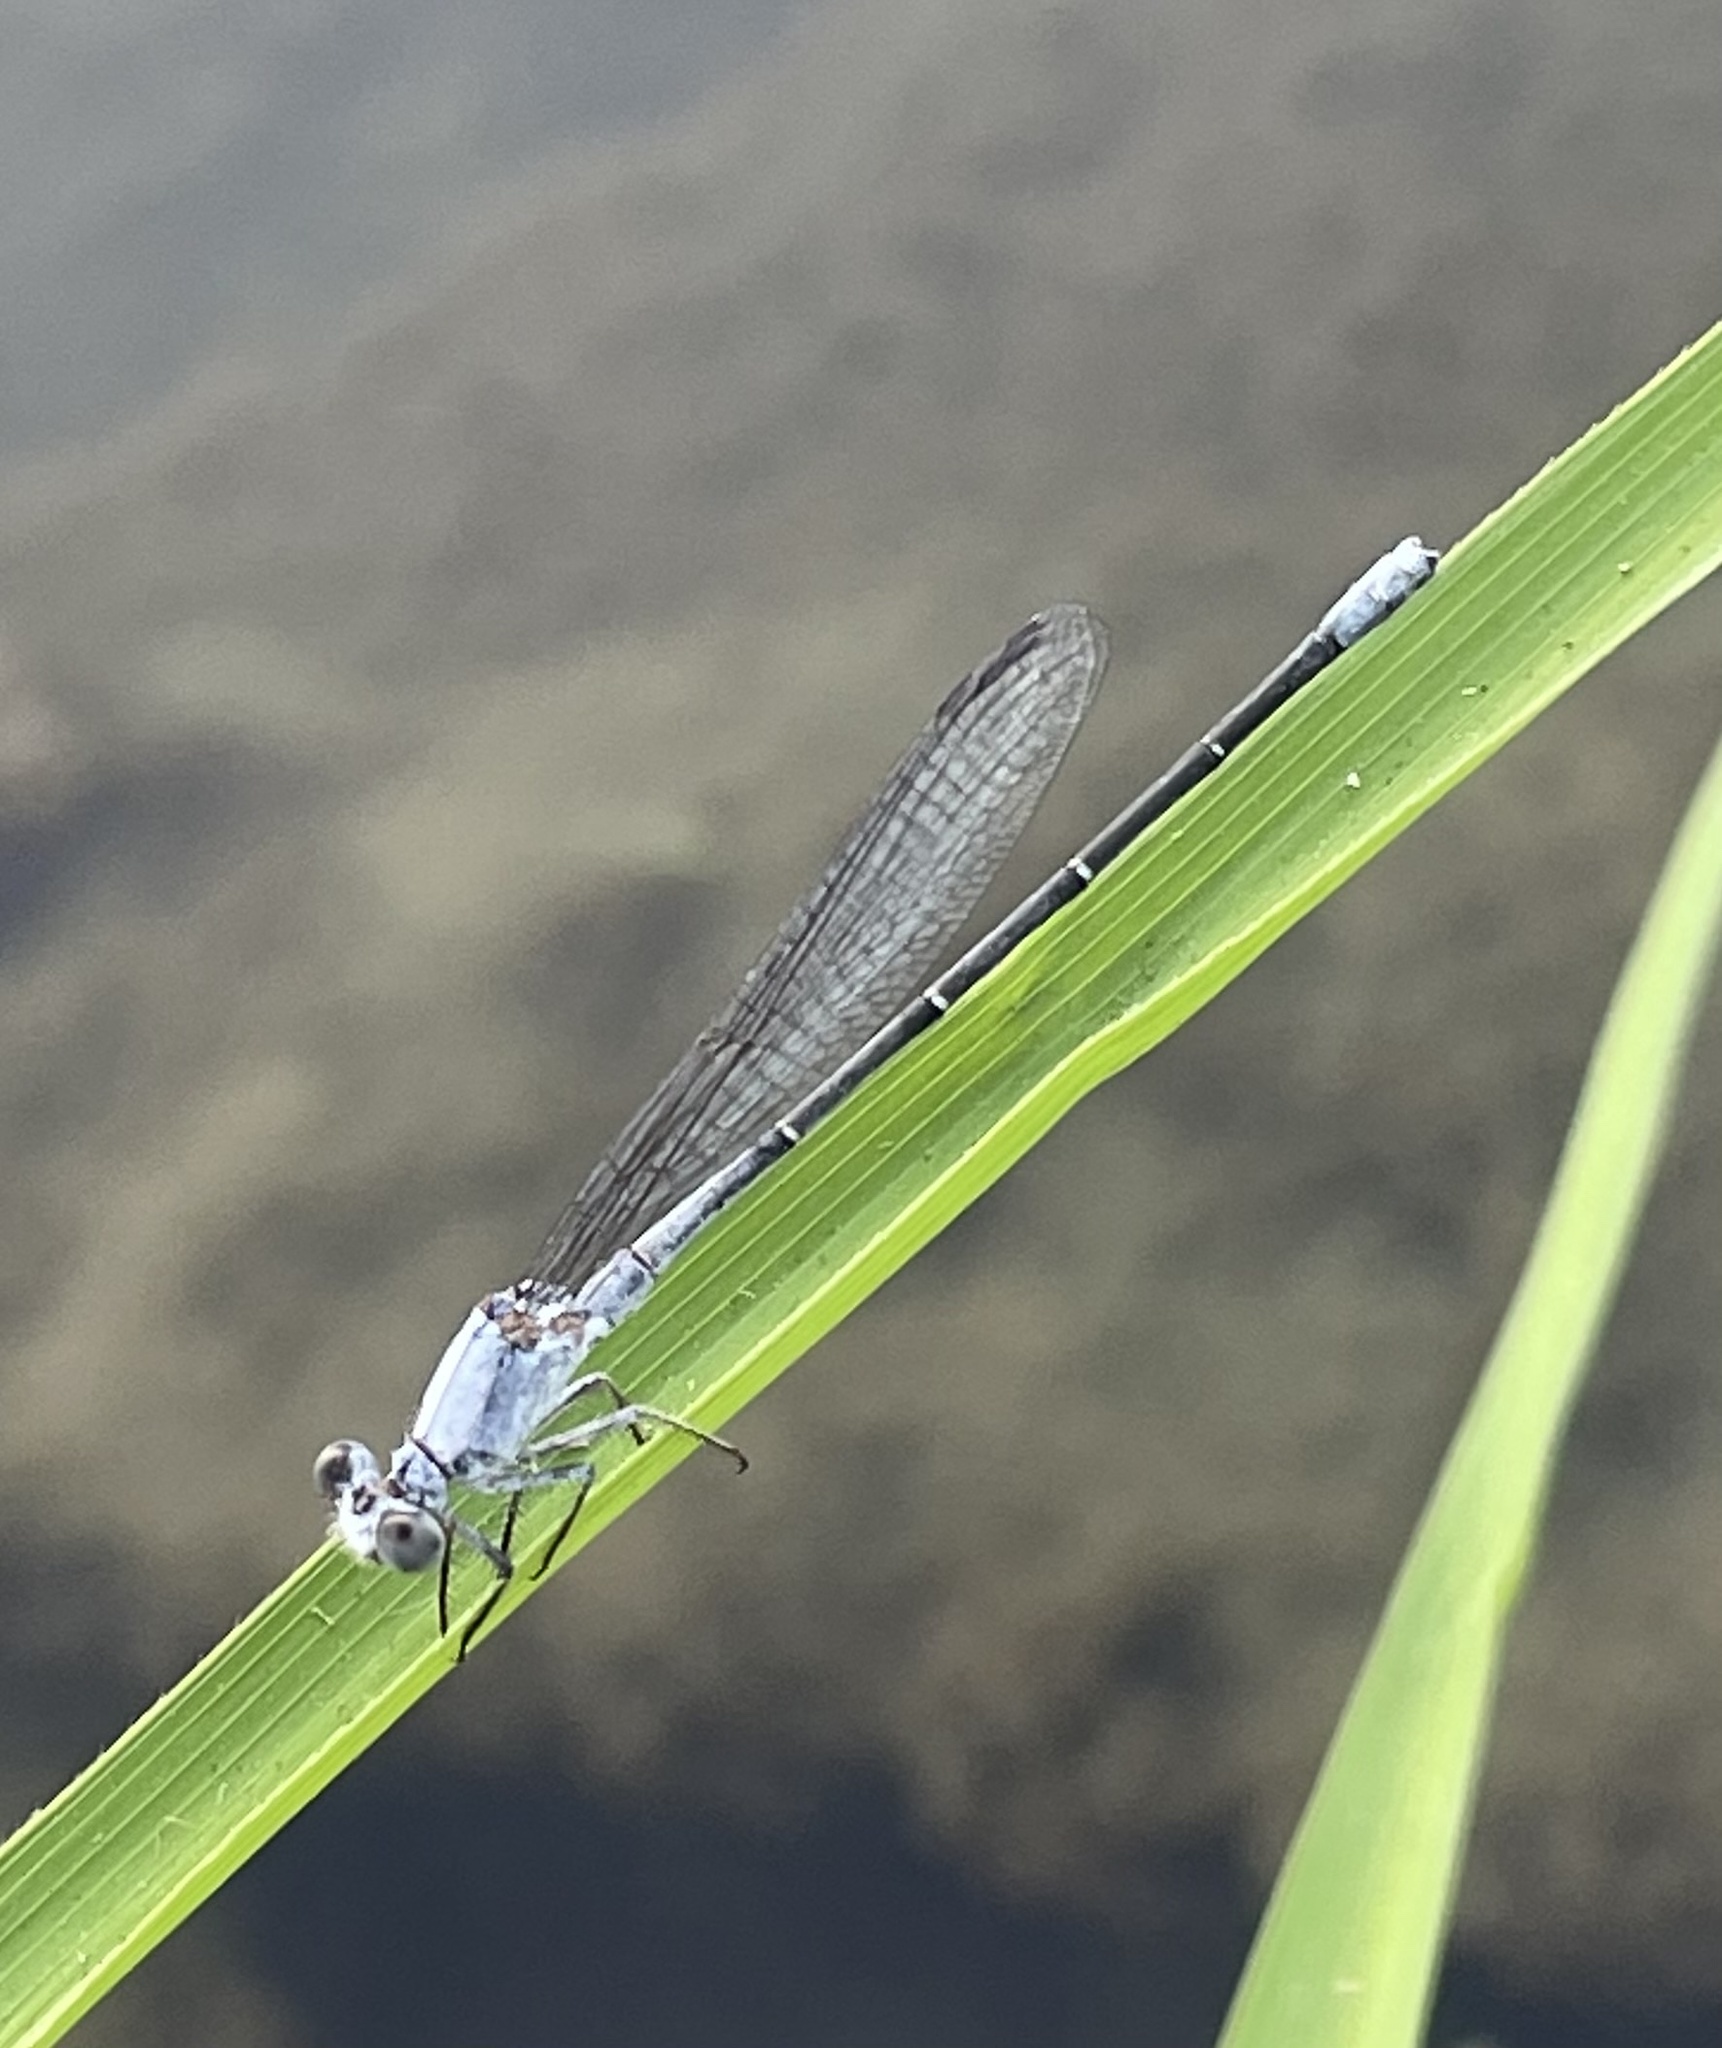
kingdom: Animalia
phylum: Arthropoda
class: Insecta
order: Odonata
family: Coenagrionidae
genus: Argia
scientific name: Argia moesta
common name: Powdered dancer
